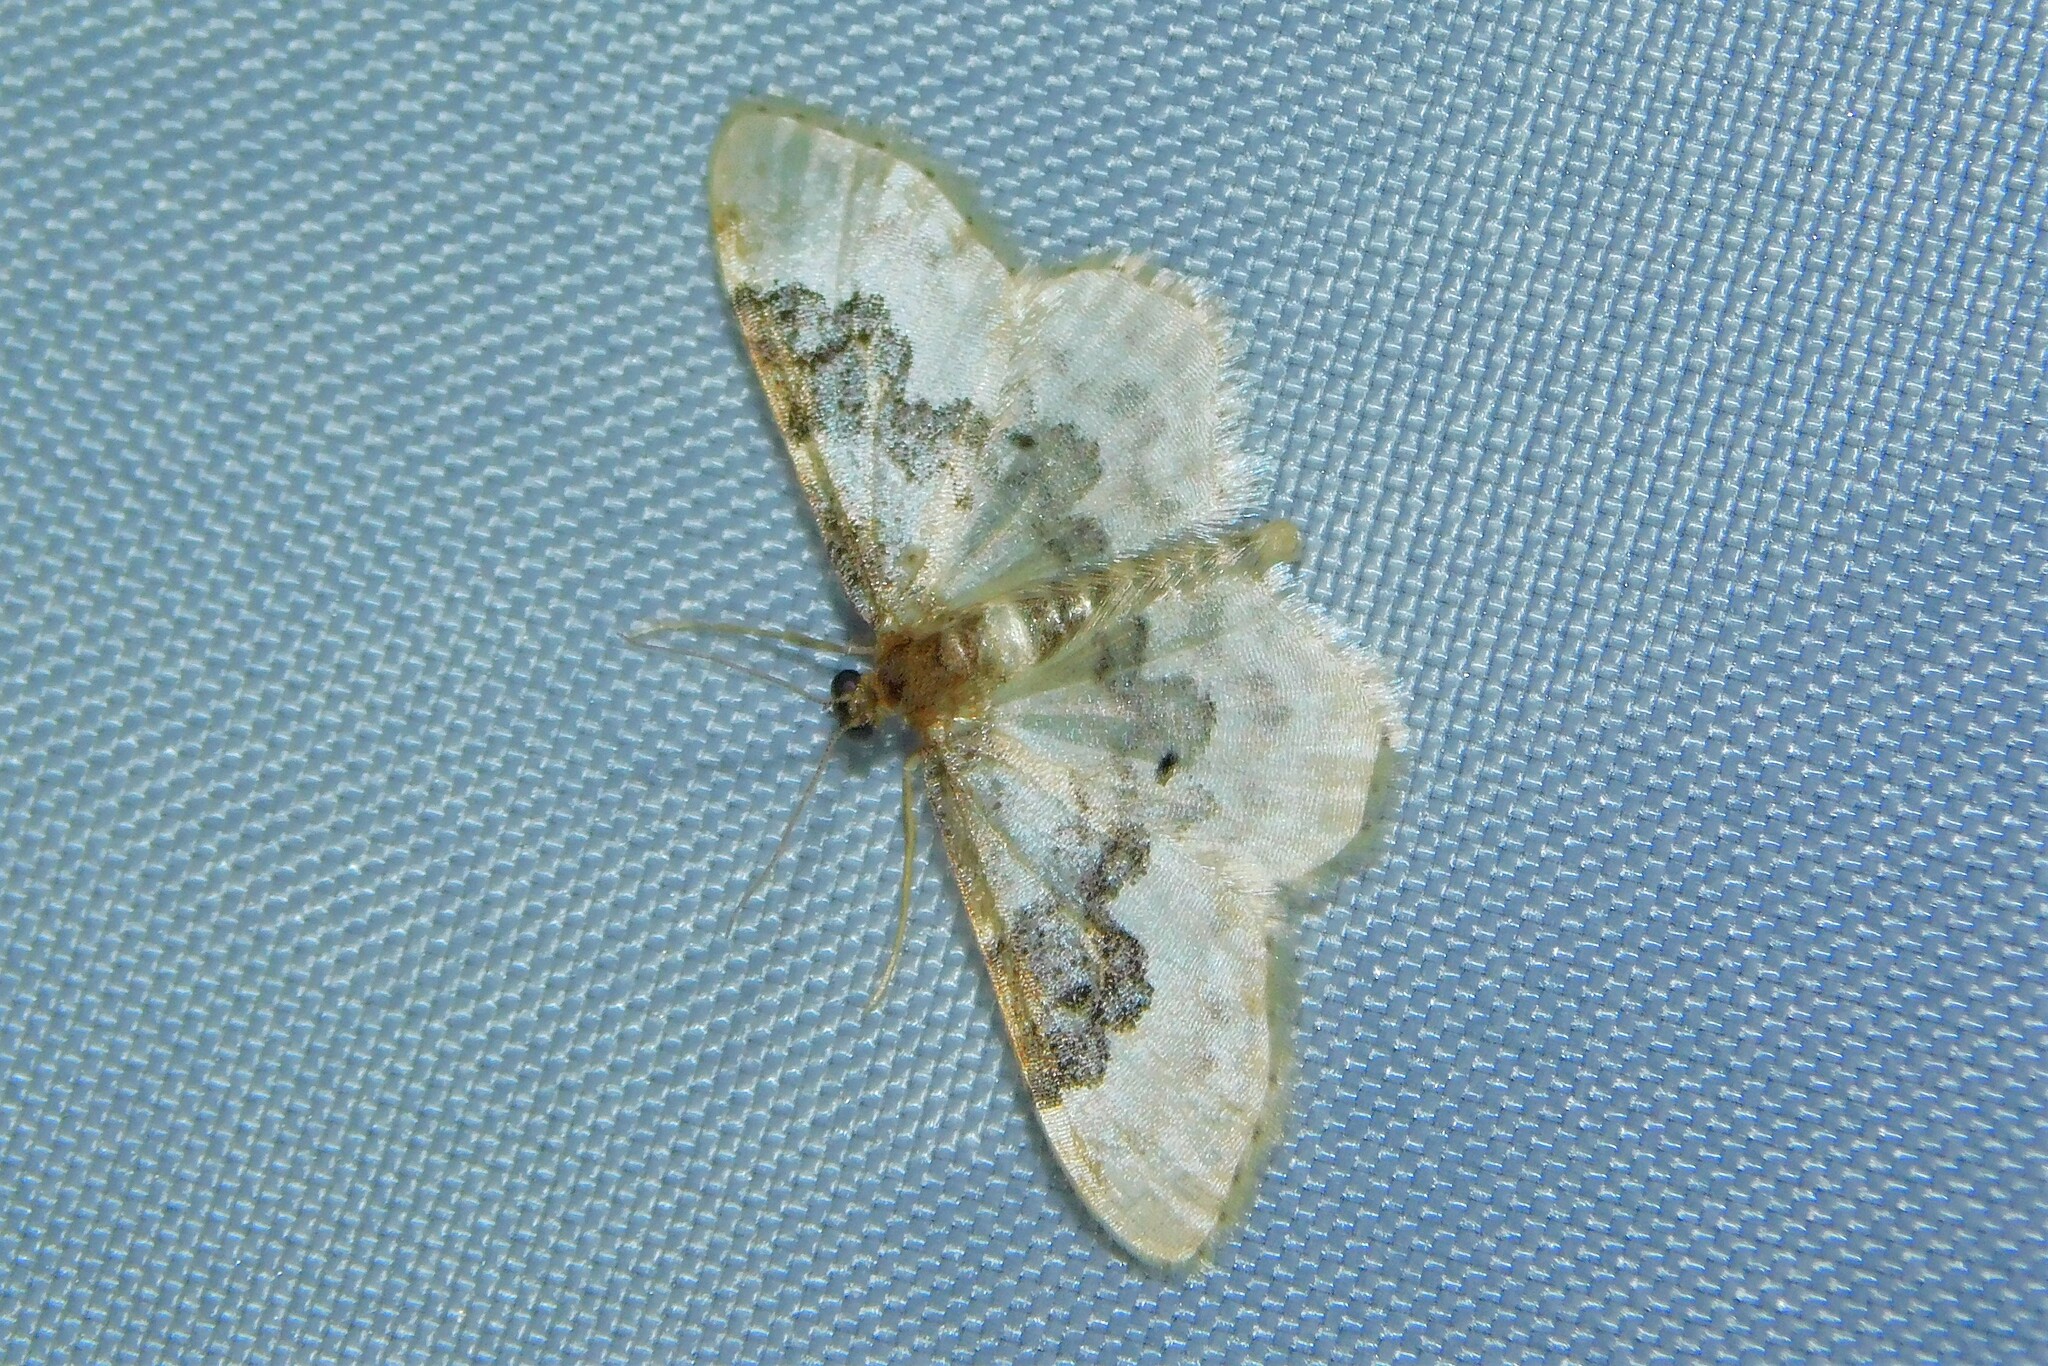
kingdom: Animalia
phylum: Arthropoda
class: Insecta
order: Lepidoptera
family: Geometridae
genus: Idaea
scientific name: Idaea rusticata
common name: Least carpet
